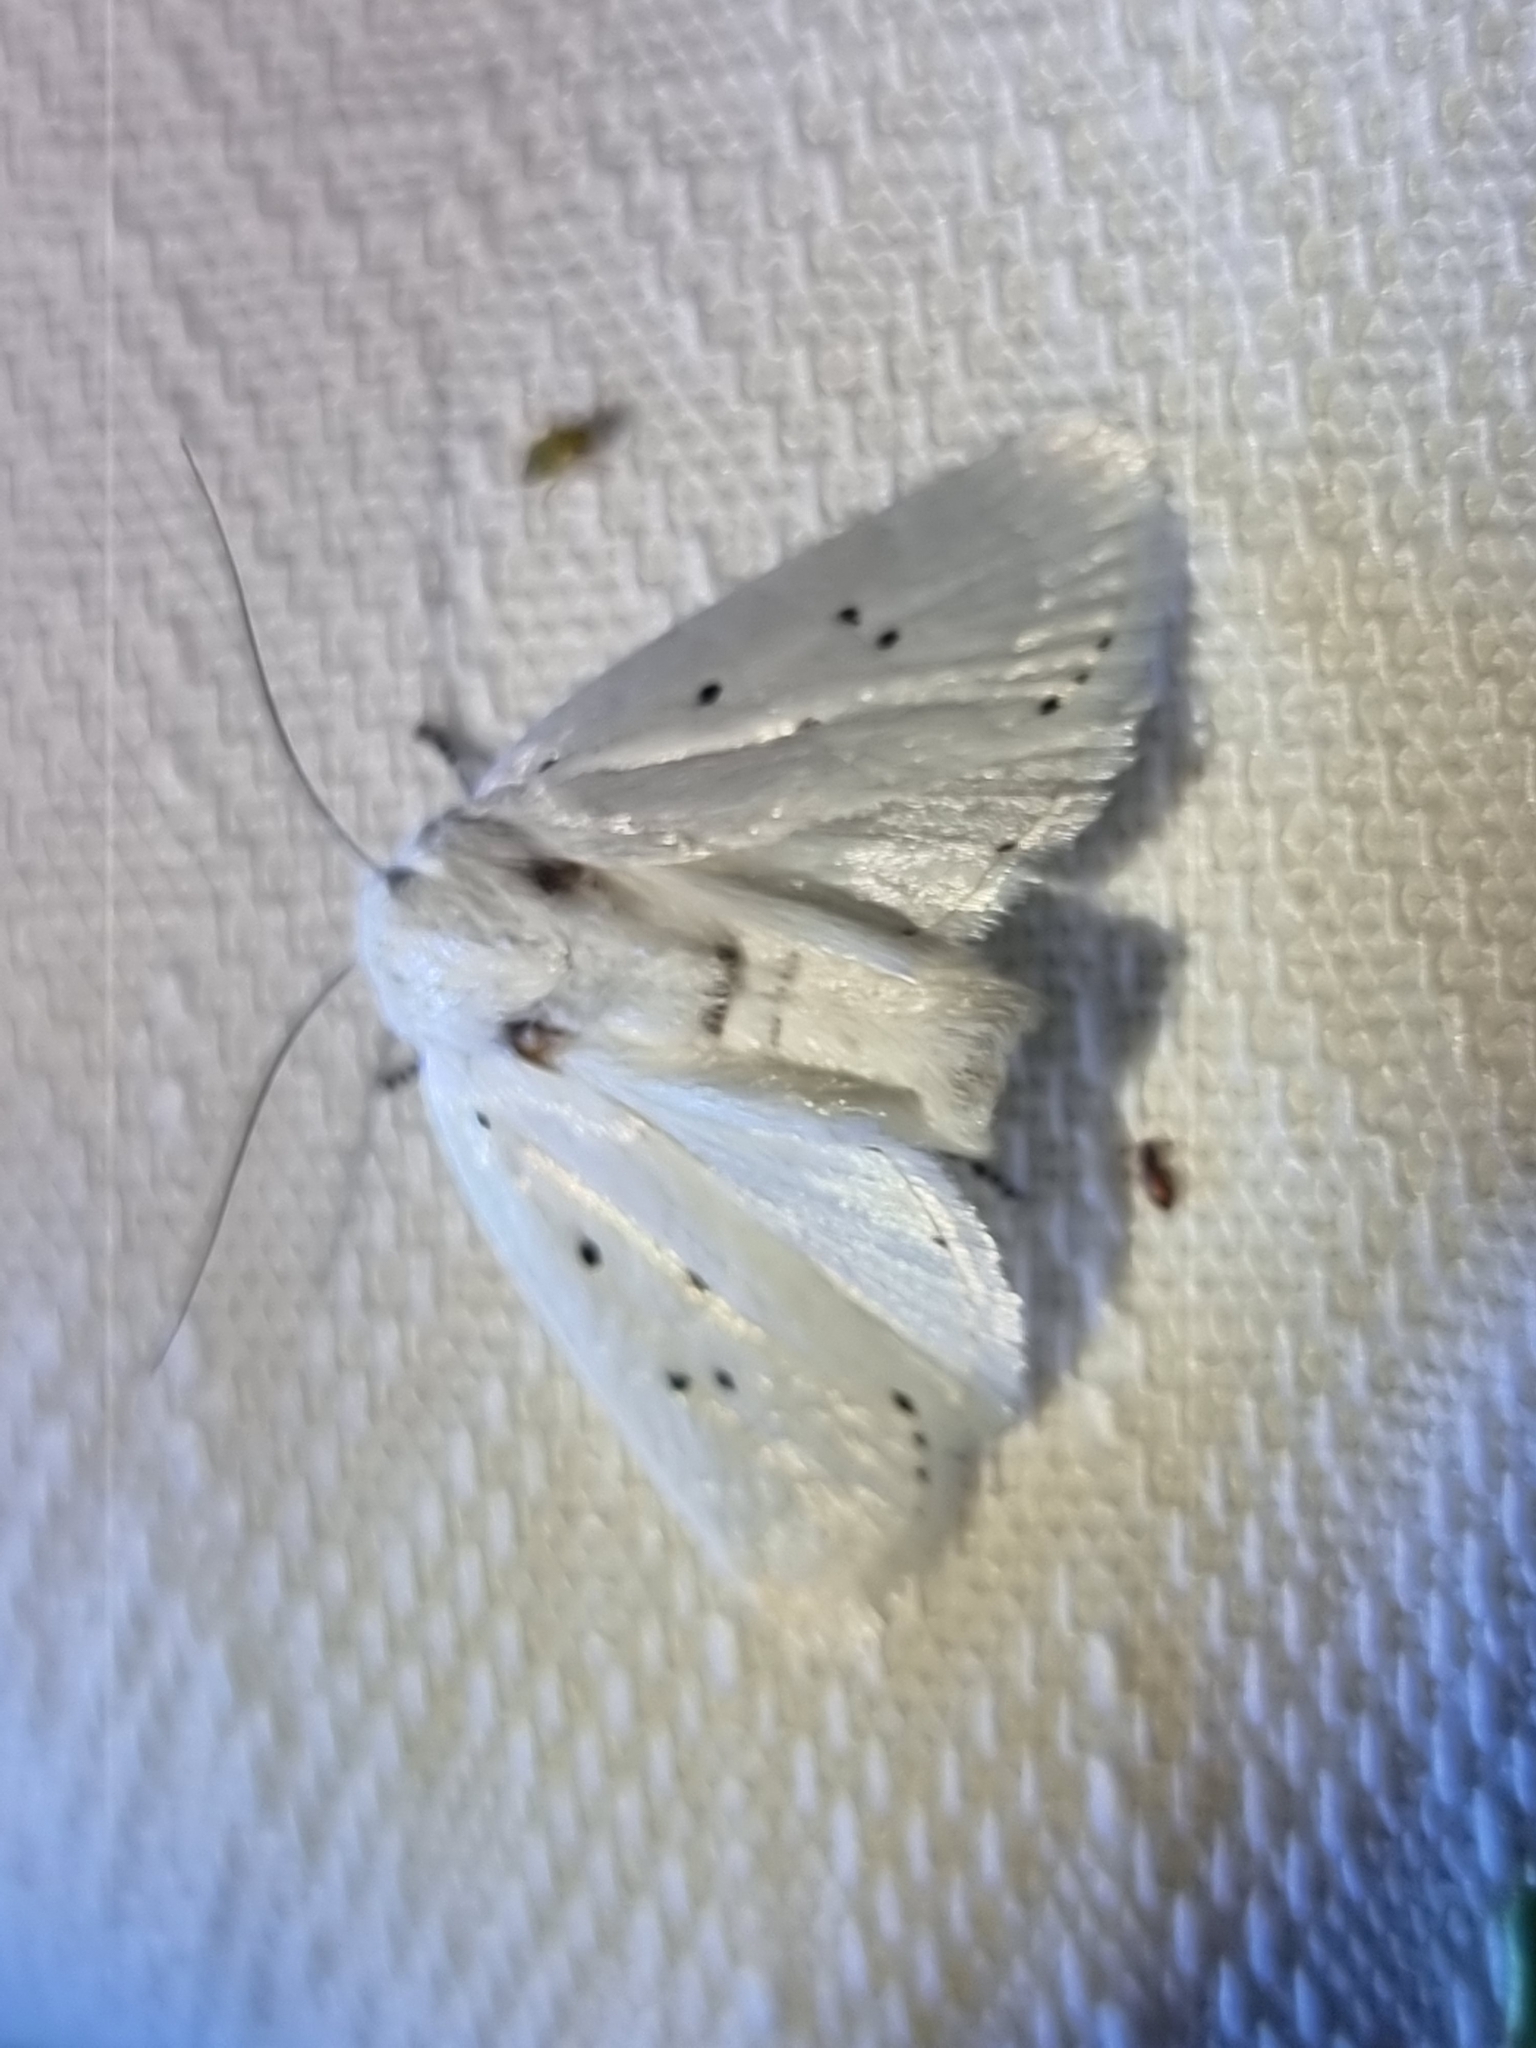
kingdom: Animalia
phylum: Arthropoda
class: Insecta
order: Lepidoptera
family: Xyloryctidae
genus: Cryptophasa
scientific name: Cryptophasa pultenae
